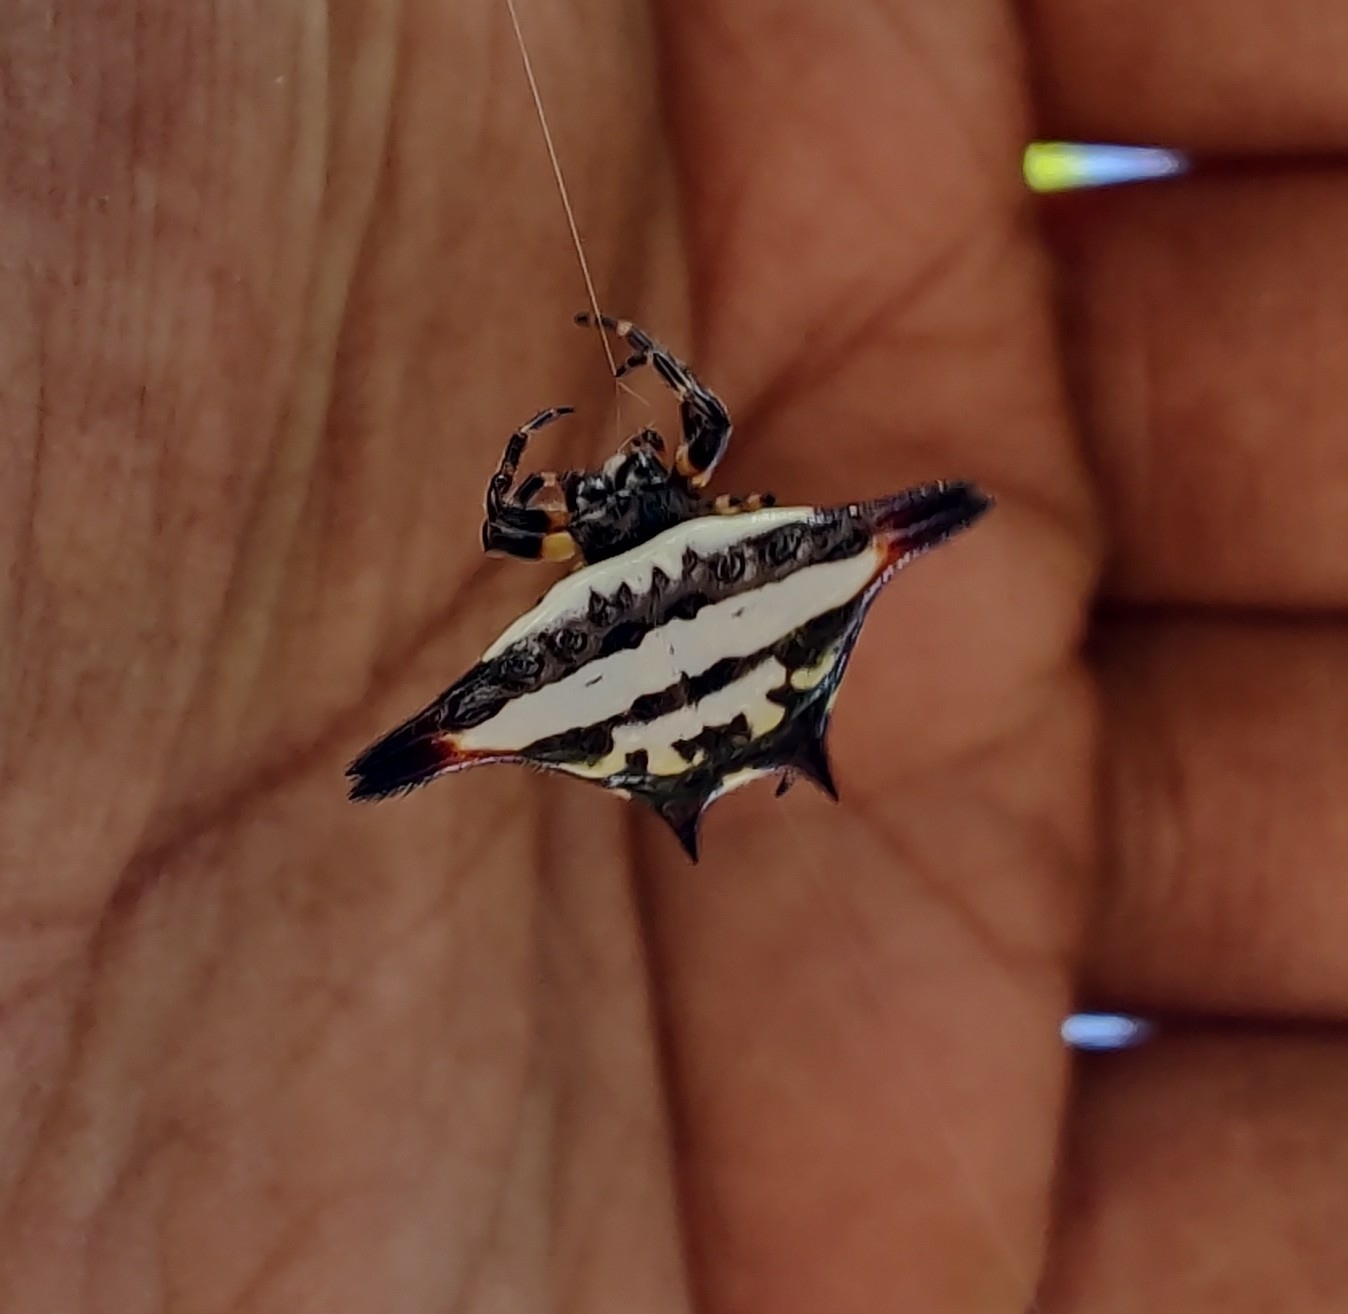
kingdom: Animalia
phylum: Arthropoda
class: Arachnida
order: Araneae
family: Araneidae
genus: Gasteracantha
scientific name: Gasteracantha geminata
